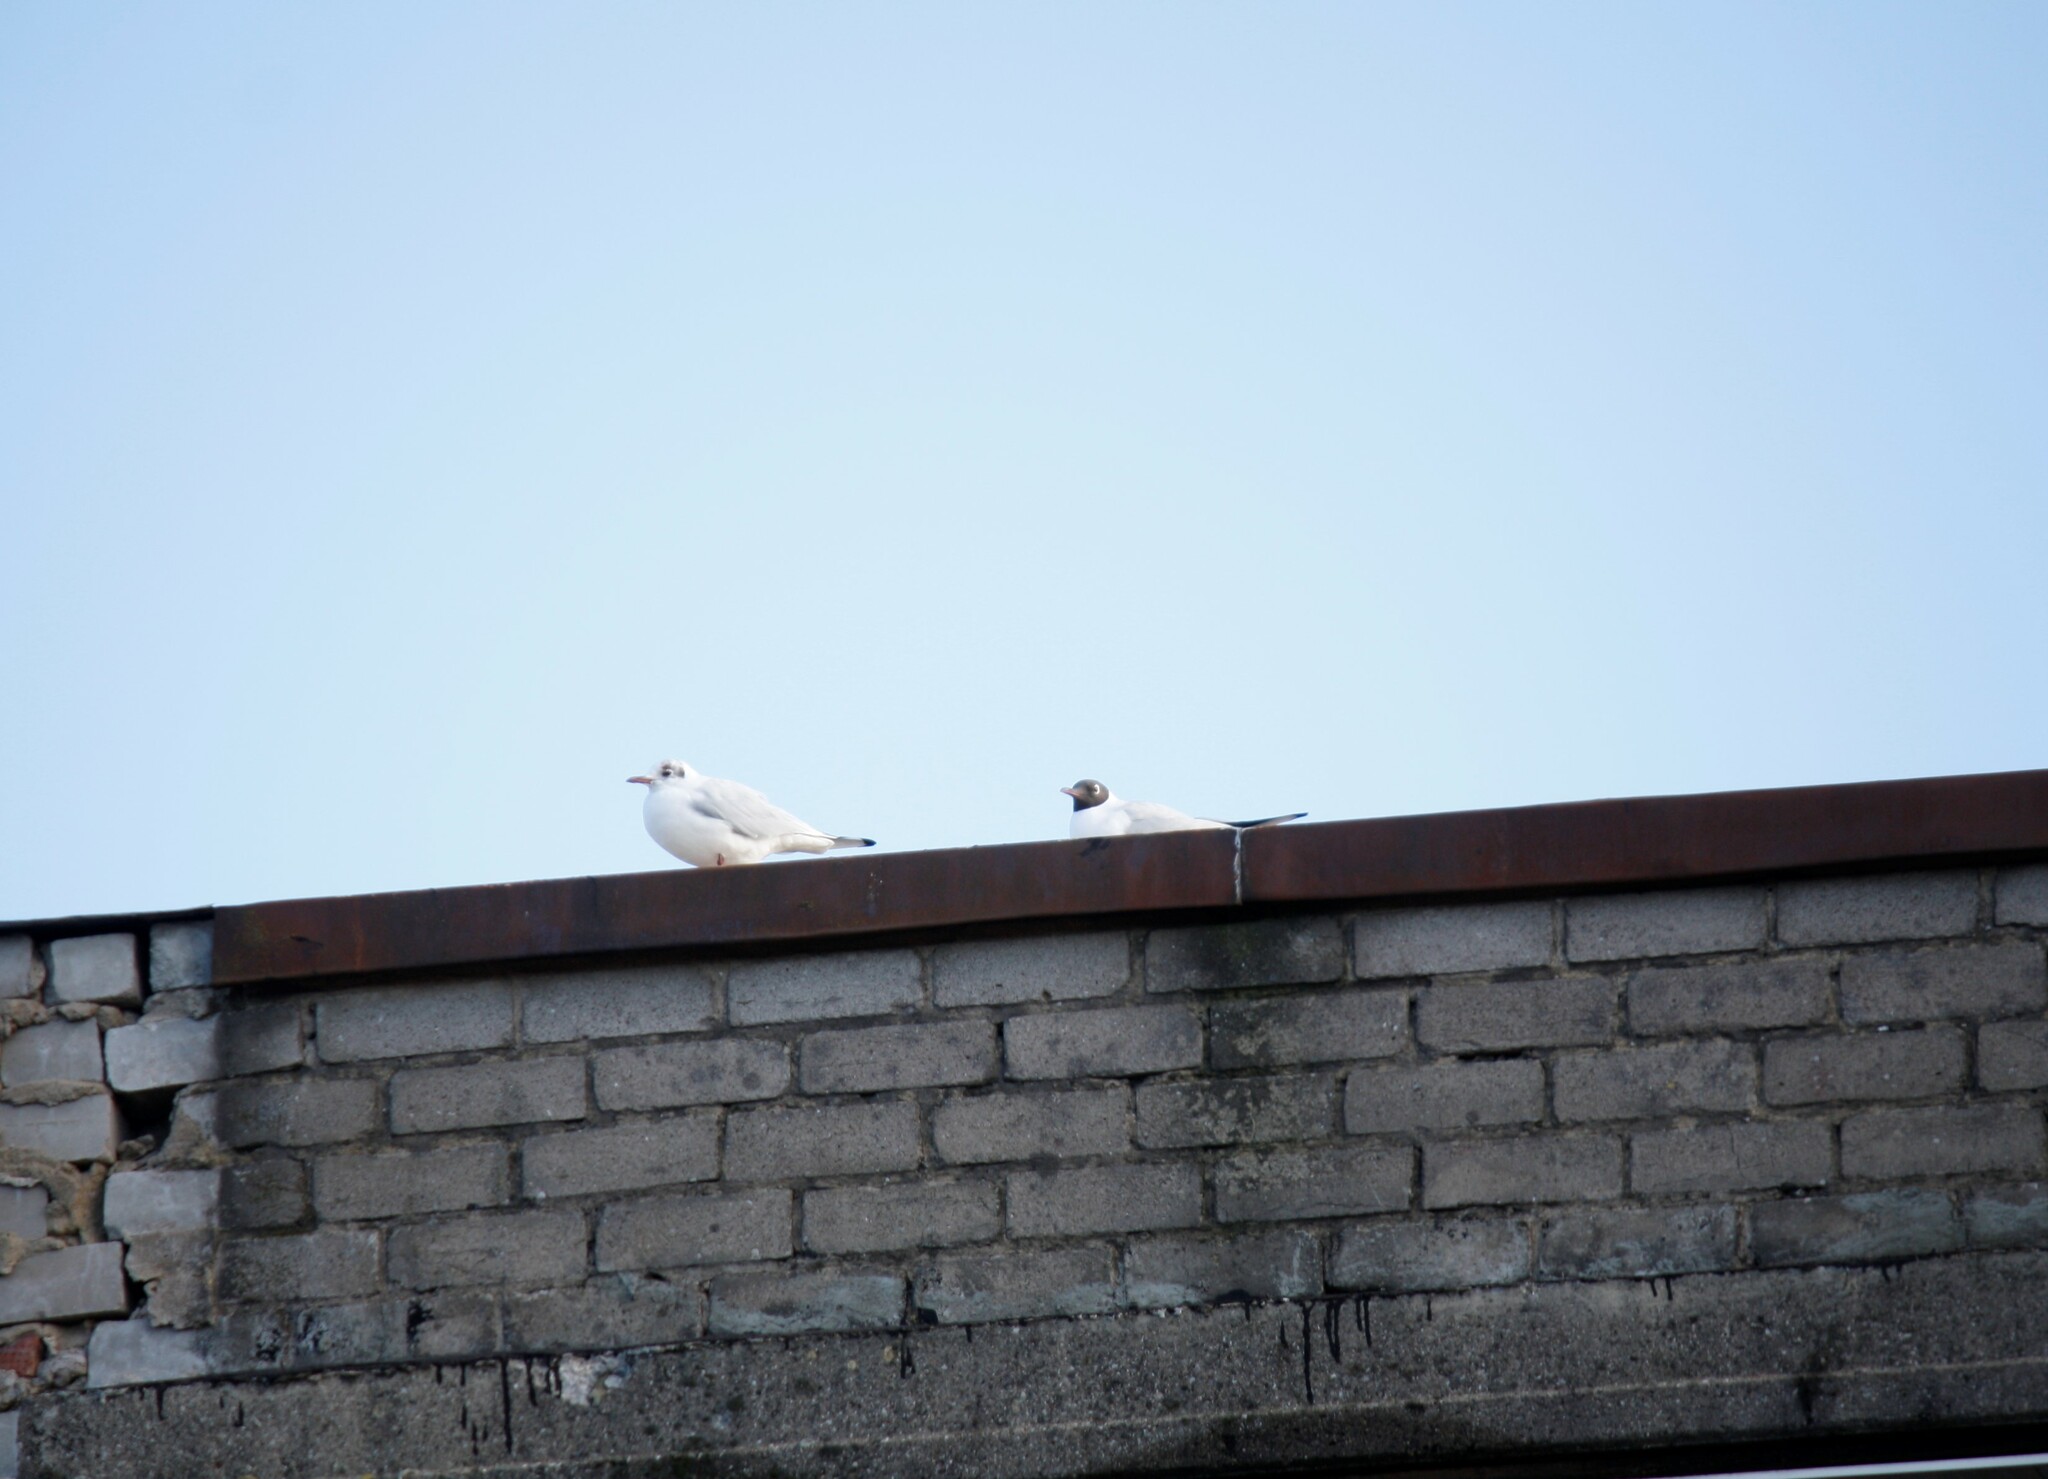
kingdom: Animalia
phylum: Chordata
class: Aves
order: Charadriiformes
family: Laridae
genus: Chroicocephalus
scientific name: Chroicocephalus ridibundus
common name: Black-headed gull
